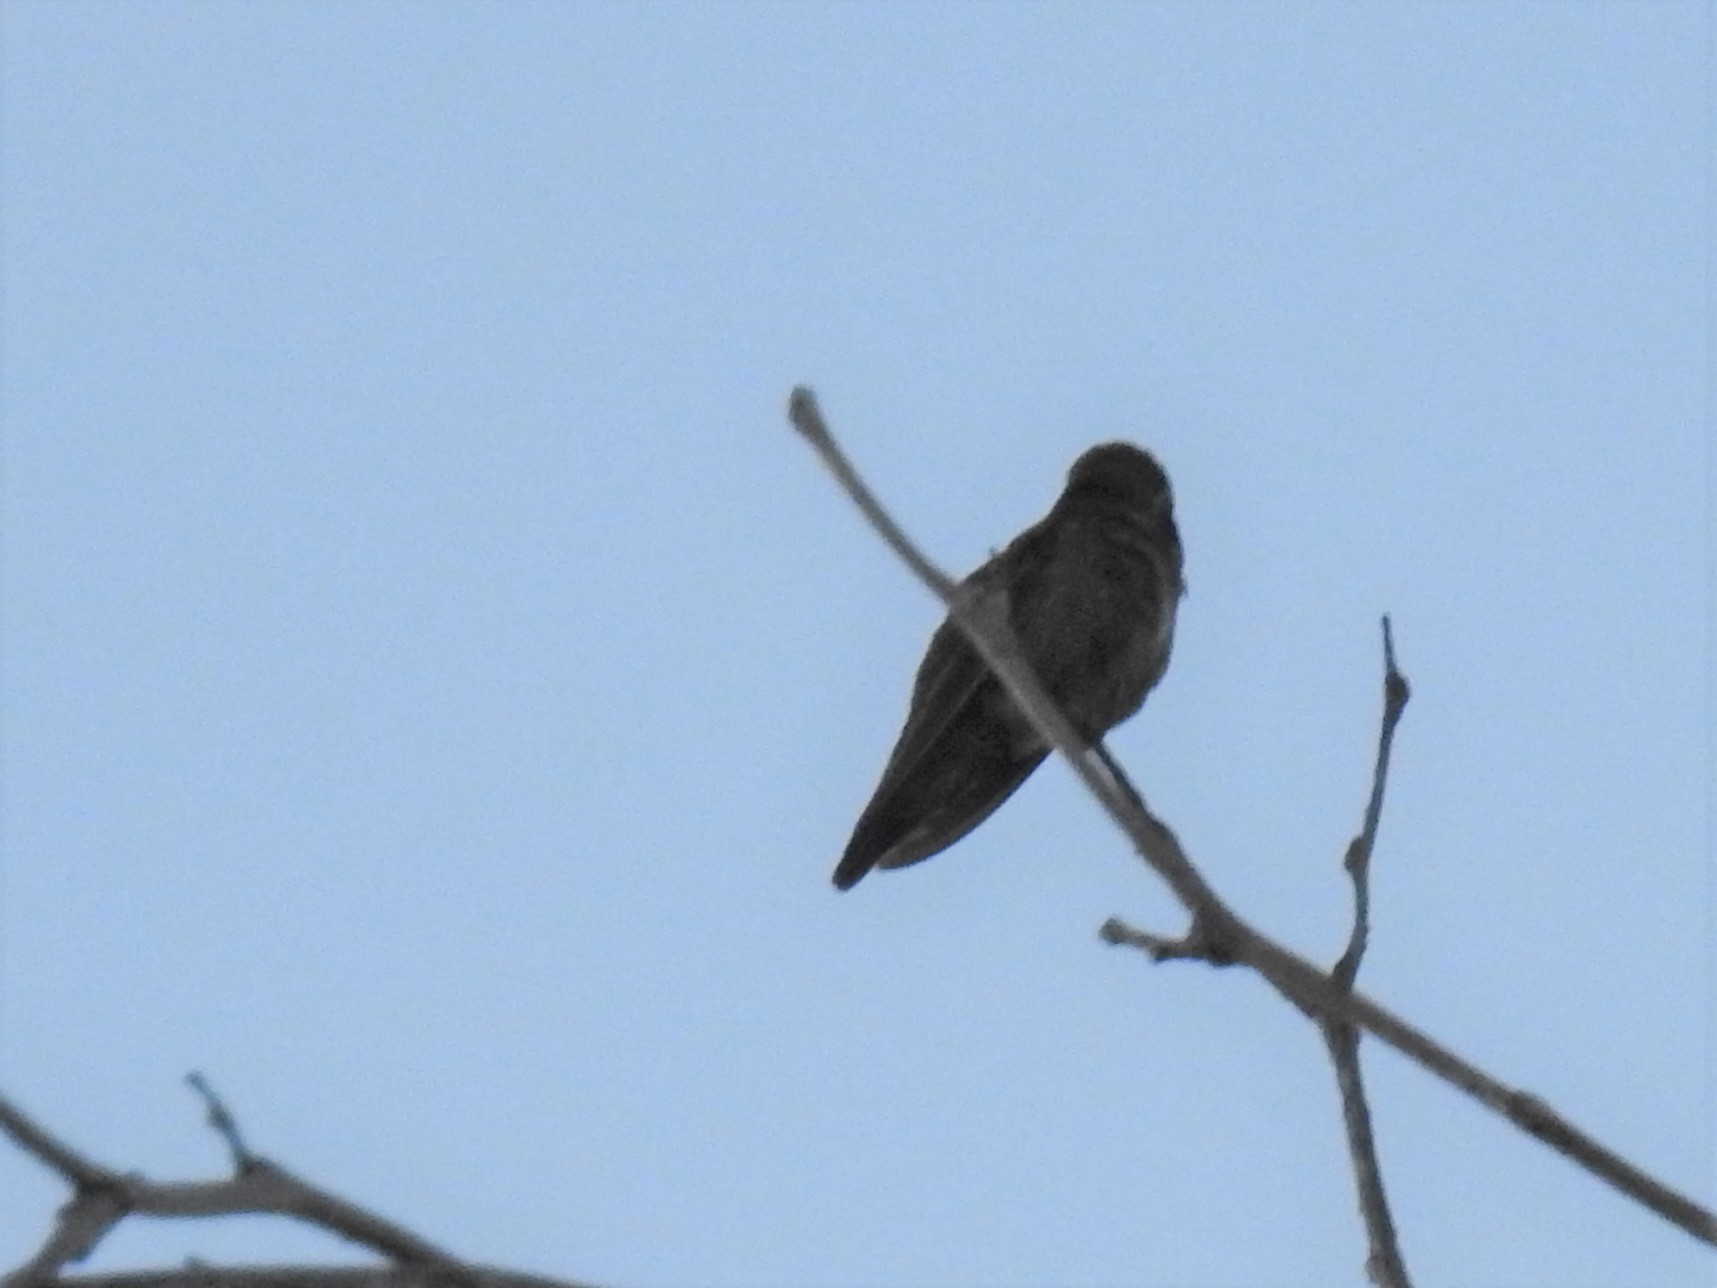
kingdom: Animalia
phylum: Chordata
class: Aves
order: Apodiformes
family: Trochilidae
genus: Calypte
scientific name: Calypte anna
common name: Anna's hummingbird
